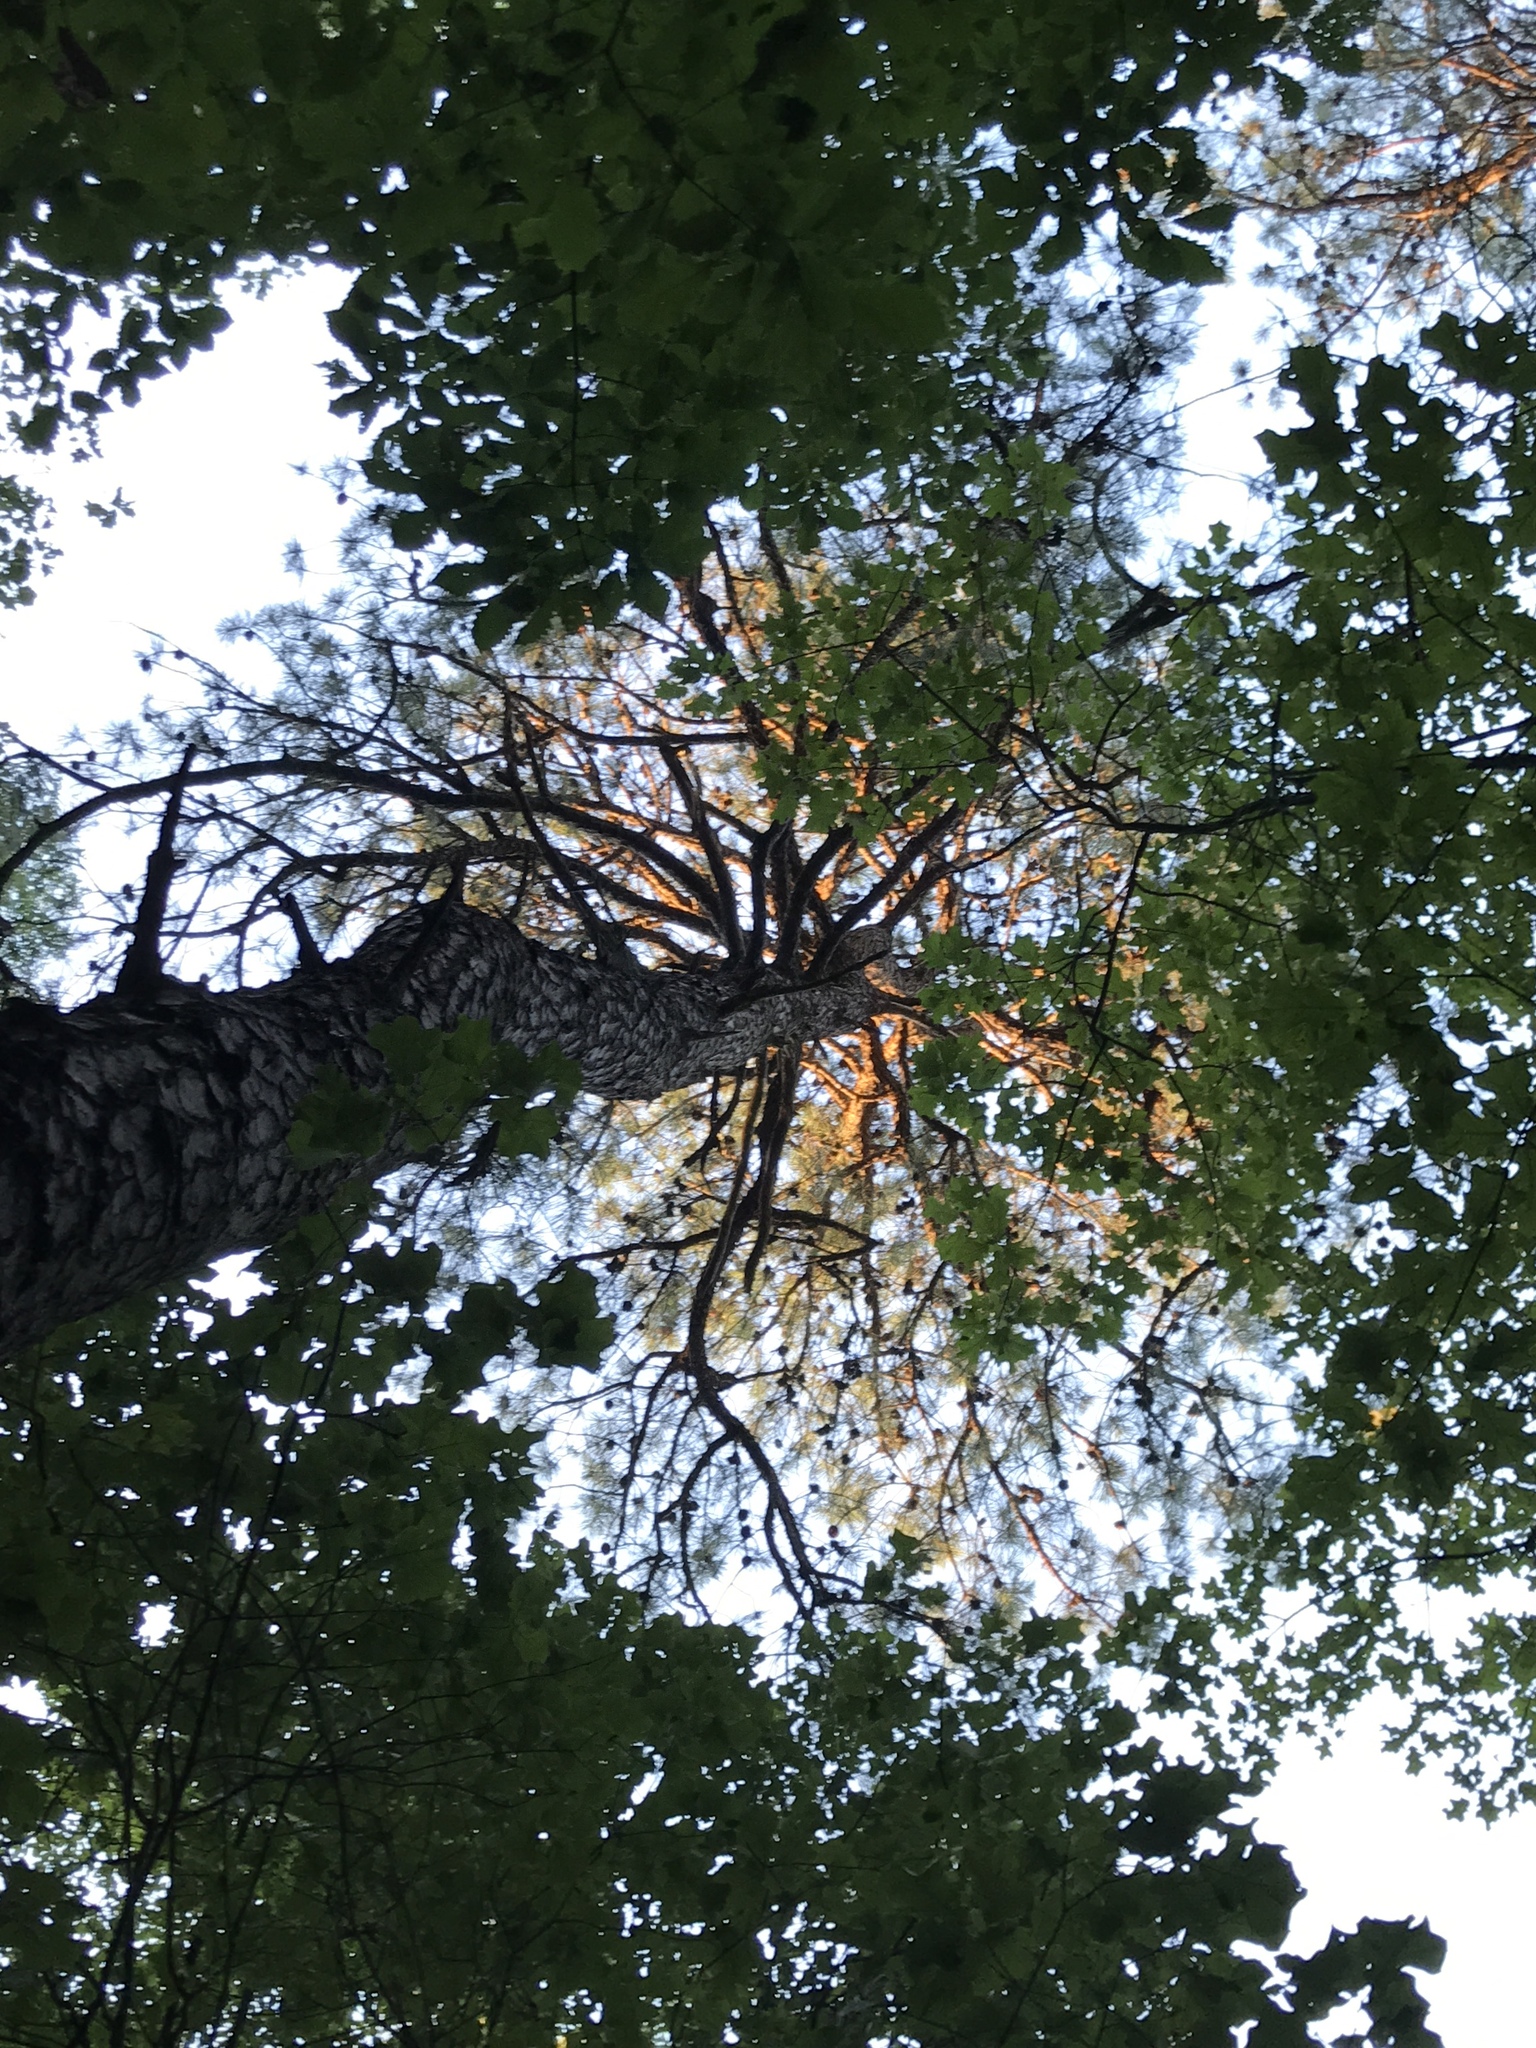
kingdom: Plantae
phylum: Tracheophyta
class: Pinopsida
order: Pinales
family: Pinaceae
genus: Pinus
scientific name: Pinus rigida
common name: Pitch pine
